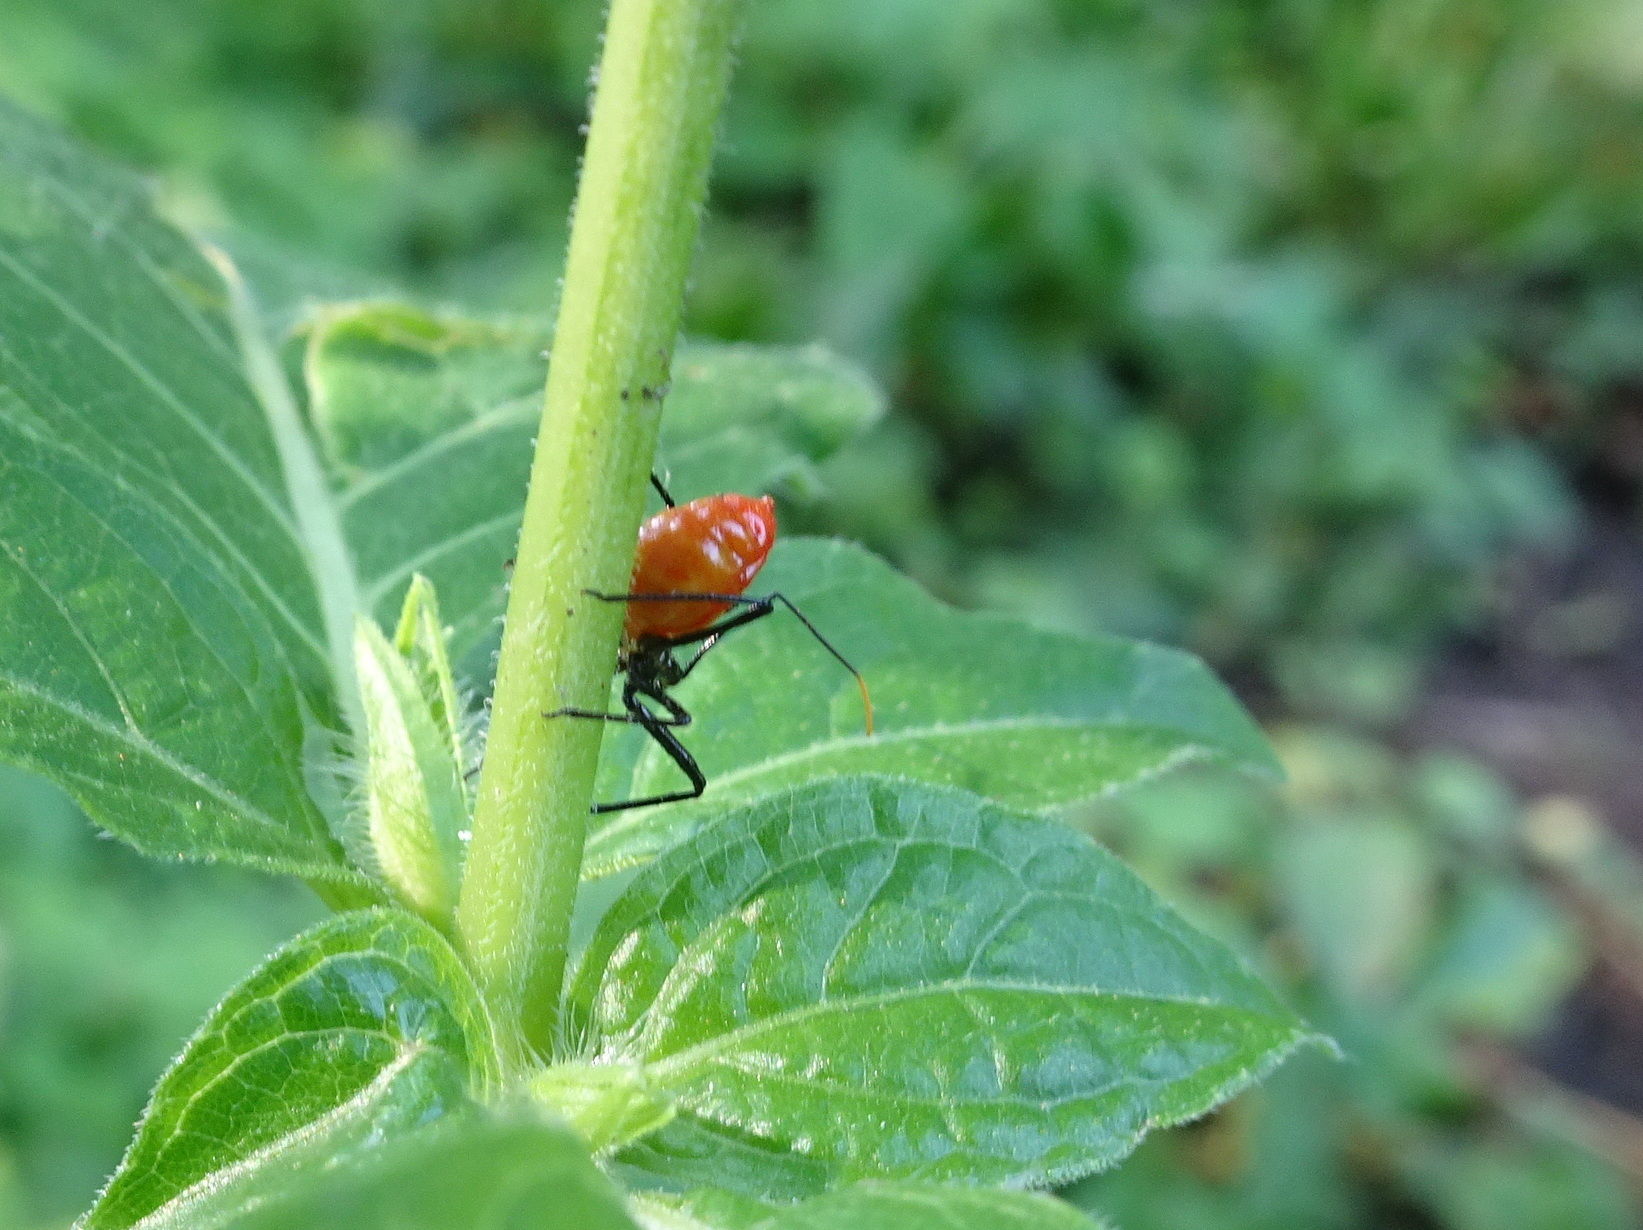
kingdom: Animalia
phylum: Arthropoda
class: Insecta
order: Hemiptera
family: Reduviidae
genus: Arilus
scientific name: Arilus cristatus
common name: North american wheel bug
